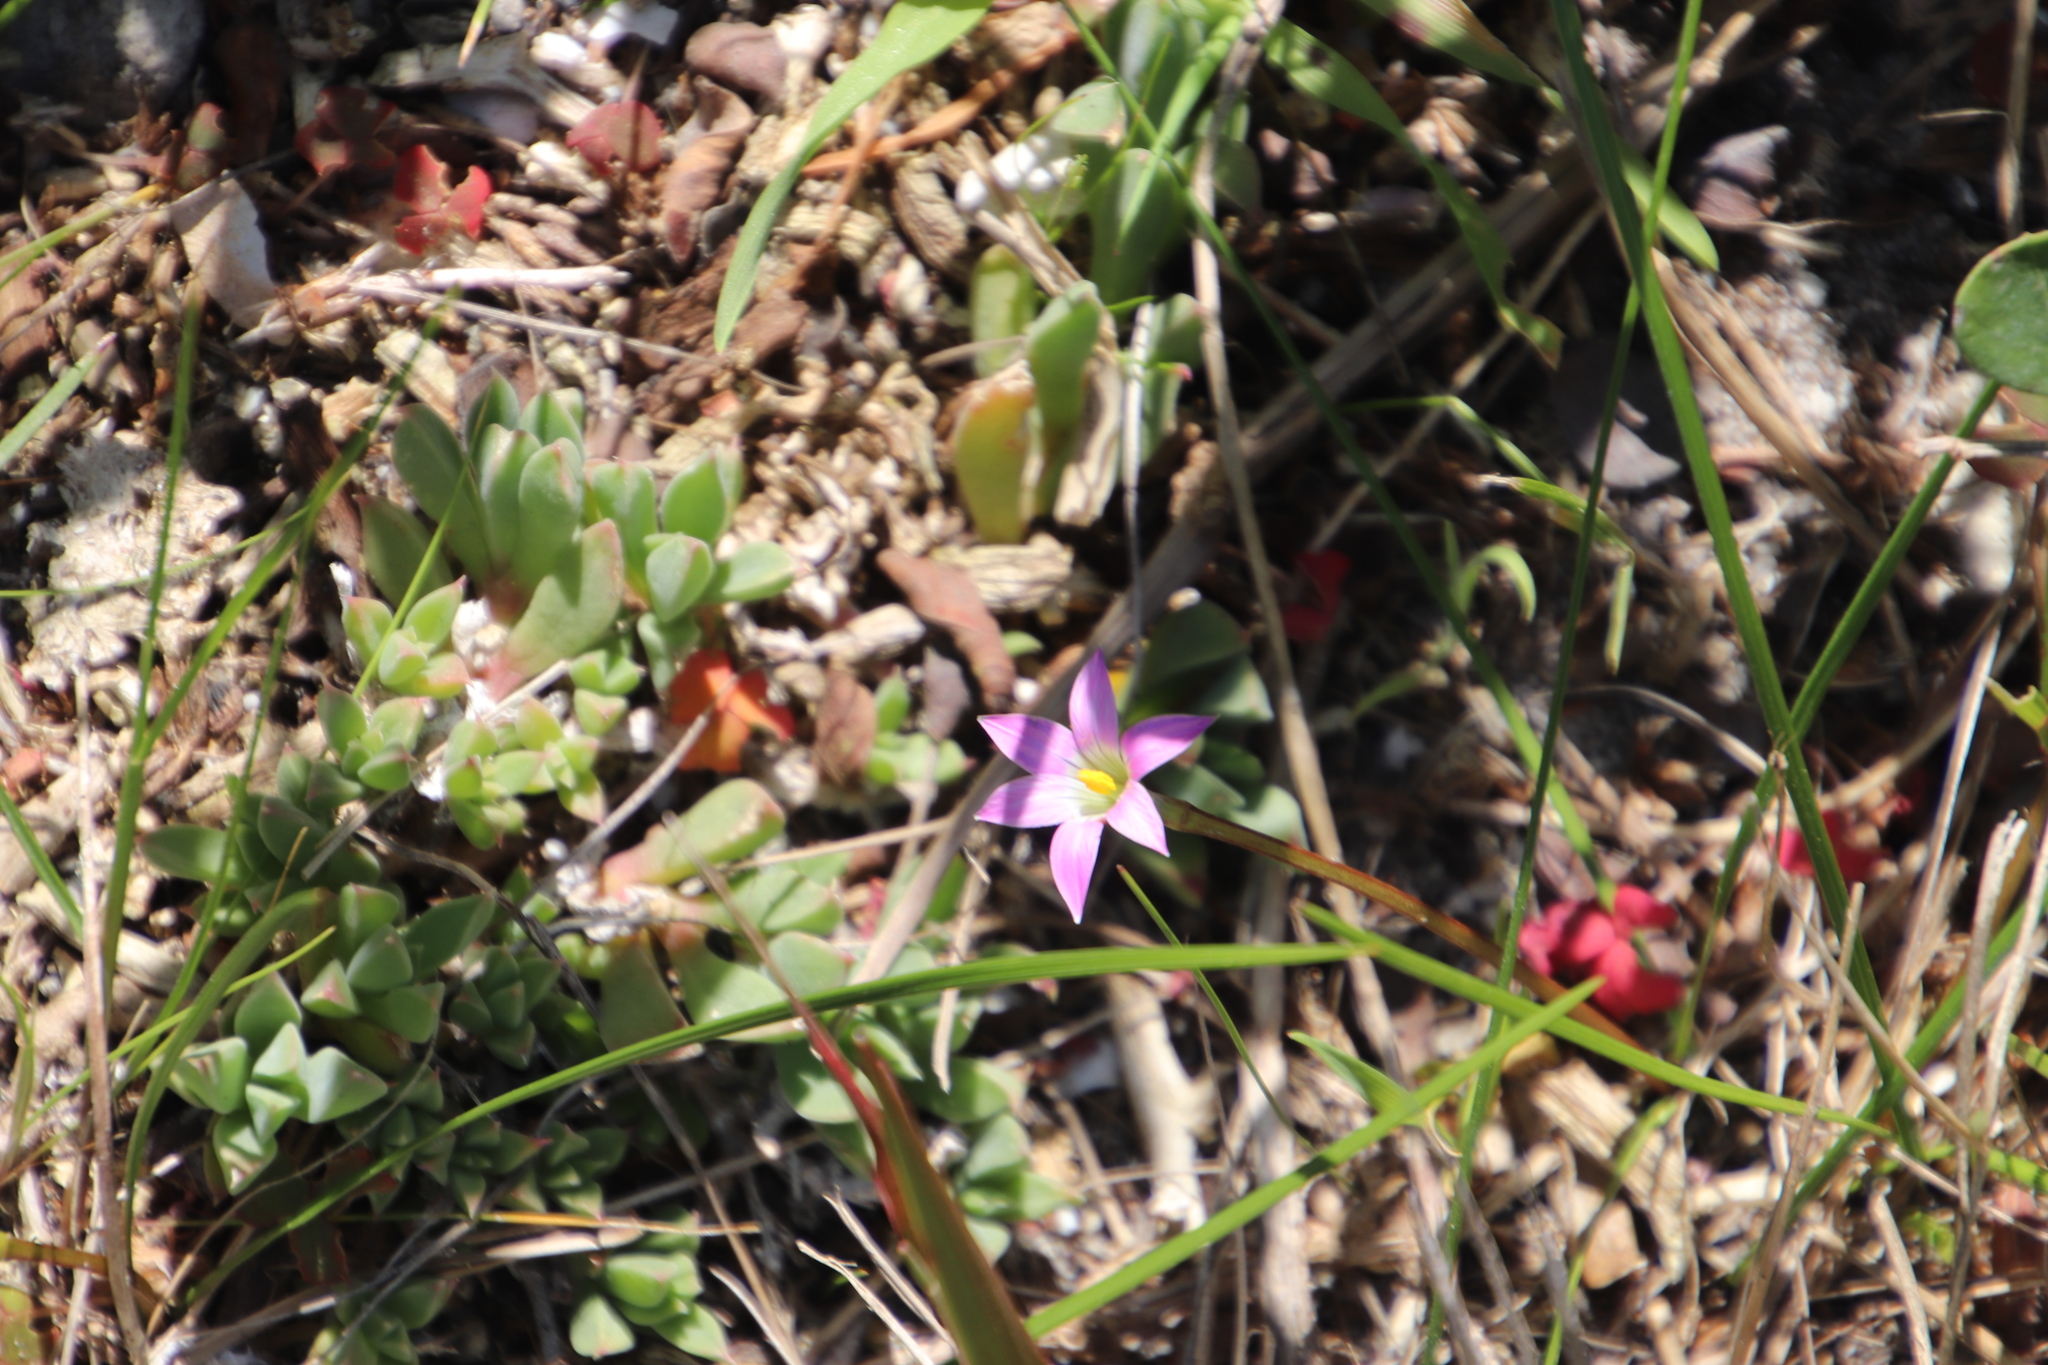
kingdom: Plantae
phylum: Tracheophyta
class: Liliopsida
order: Asparagales
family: Iridaceae
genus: Romulea
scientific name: Romulea rosea
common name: Oniongrass
